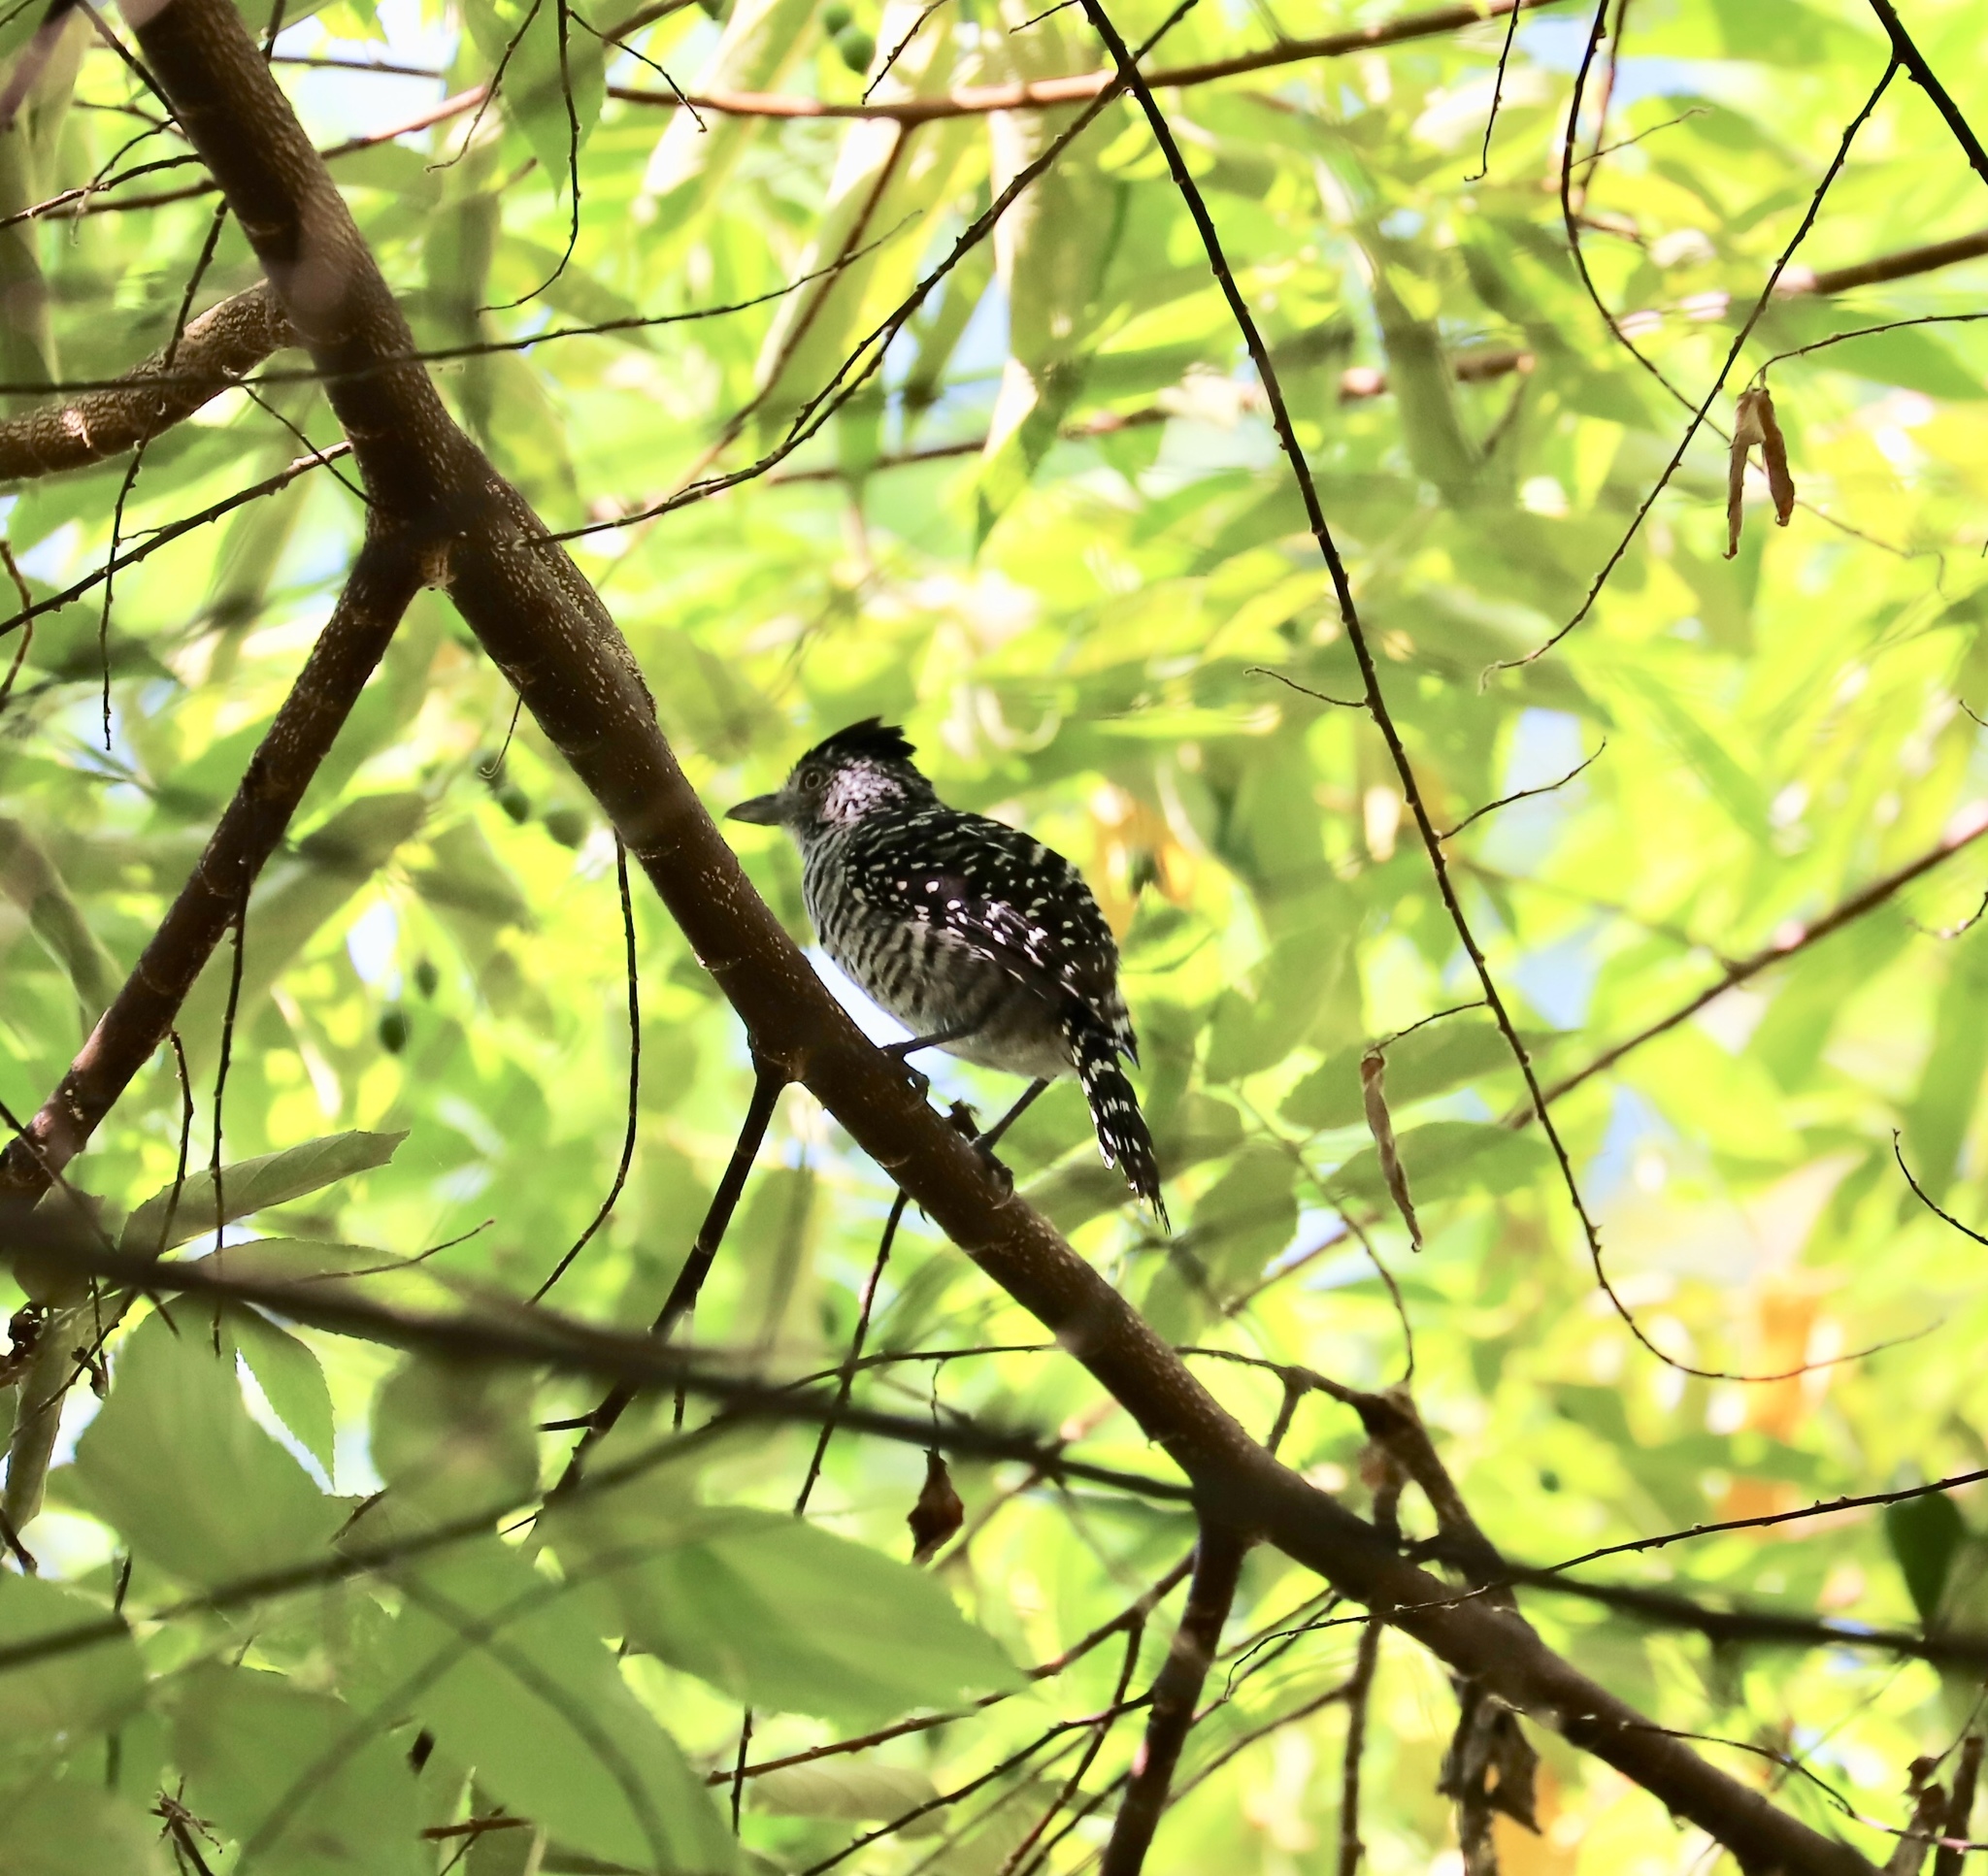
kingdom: Animalia
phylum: Chordata
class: Aves
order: Passeriformes
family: Thamnophilidae
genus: Thamnophilus
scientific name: Thamnophilus doliatus
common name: Barred antshrike
